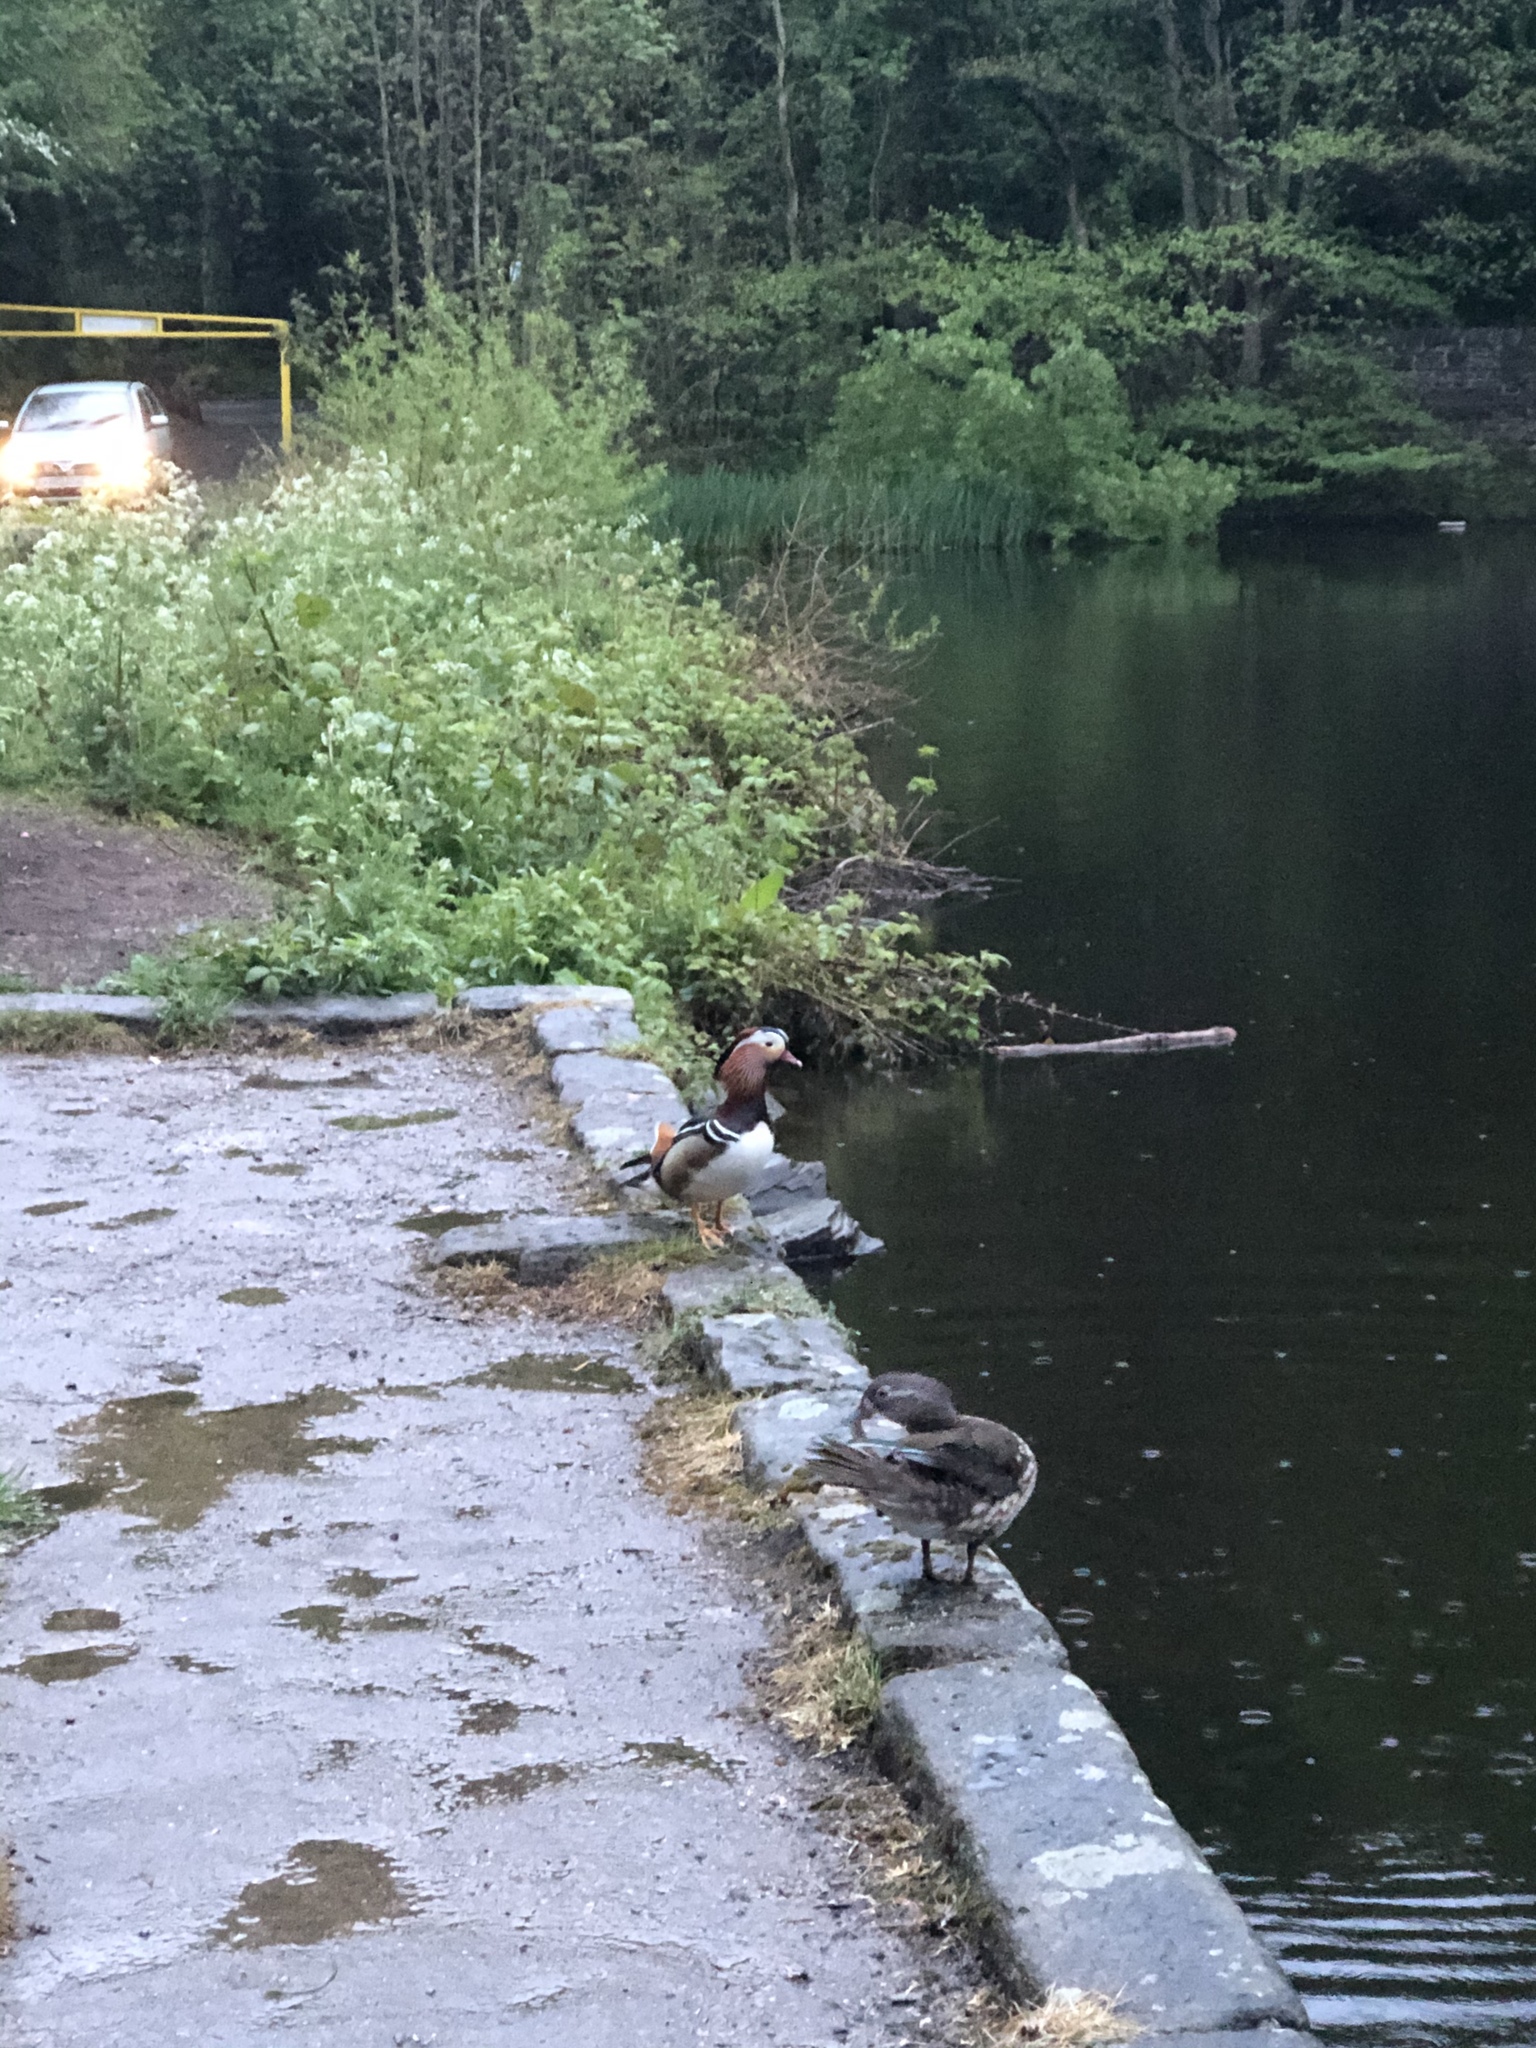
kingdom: Animalia
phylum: Chordata
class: Aves
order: Anseriformes
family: Anatidae
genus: Aix
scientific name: Aix galericulata
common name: Mandarin duck
